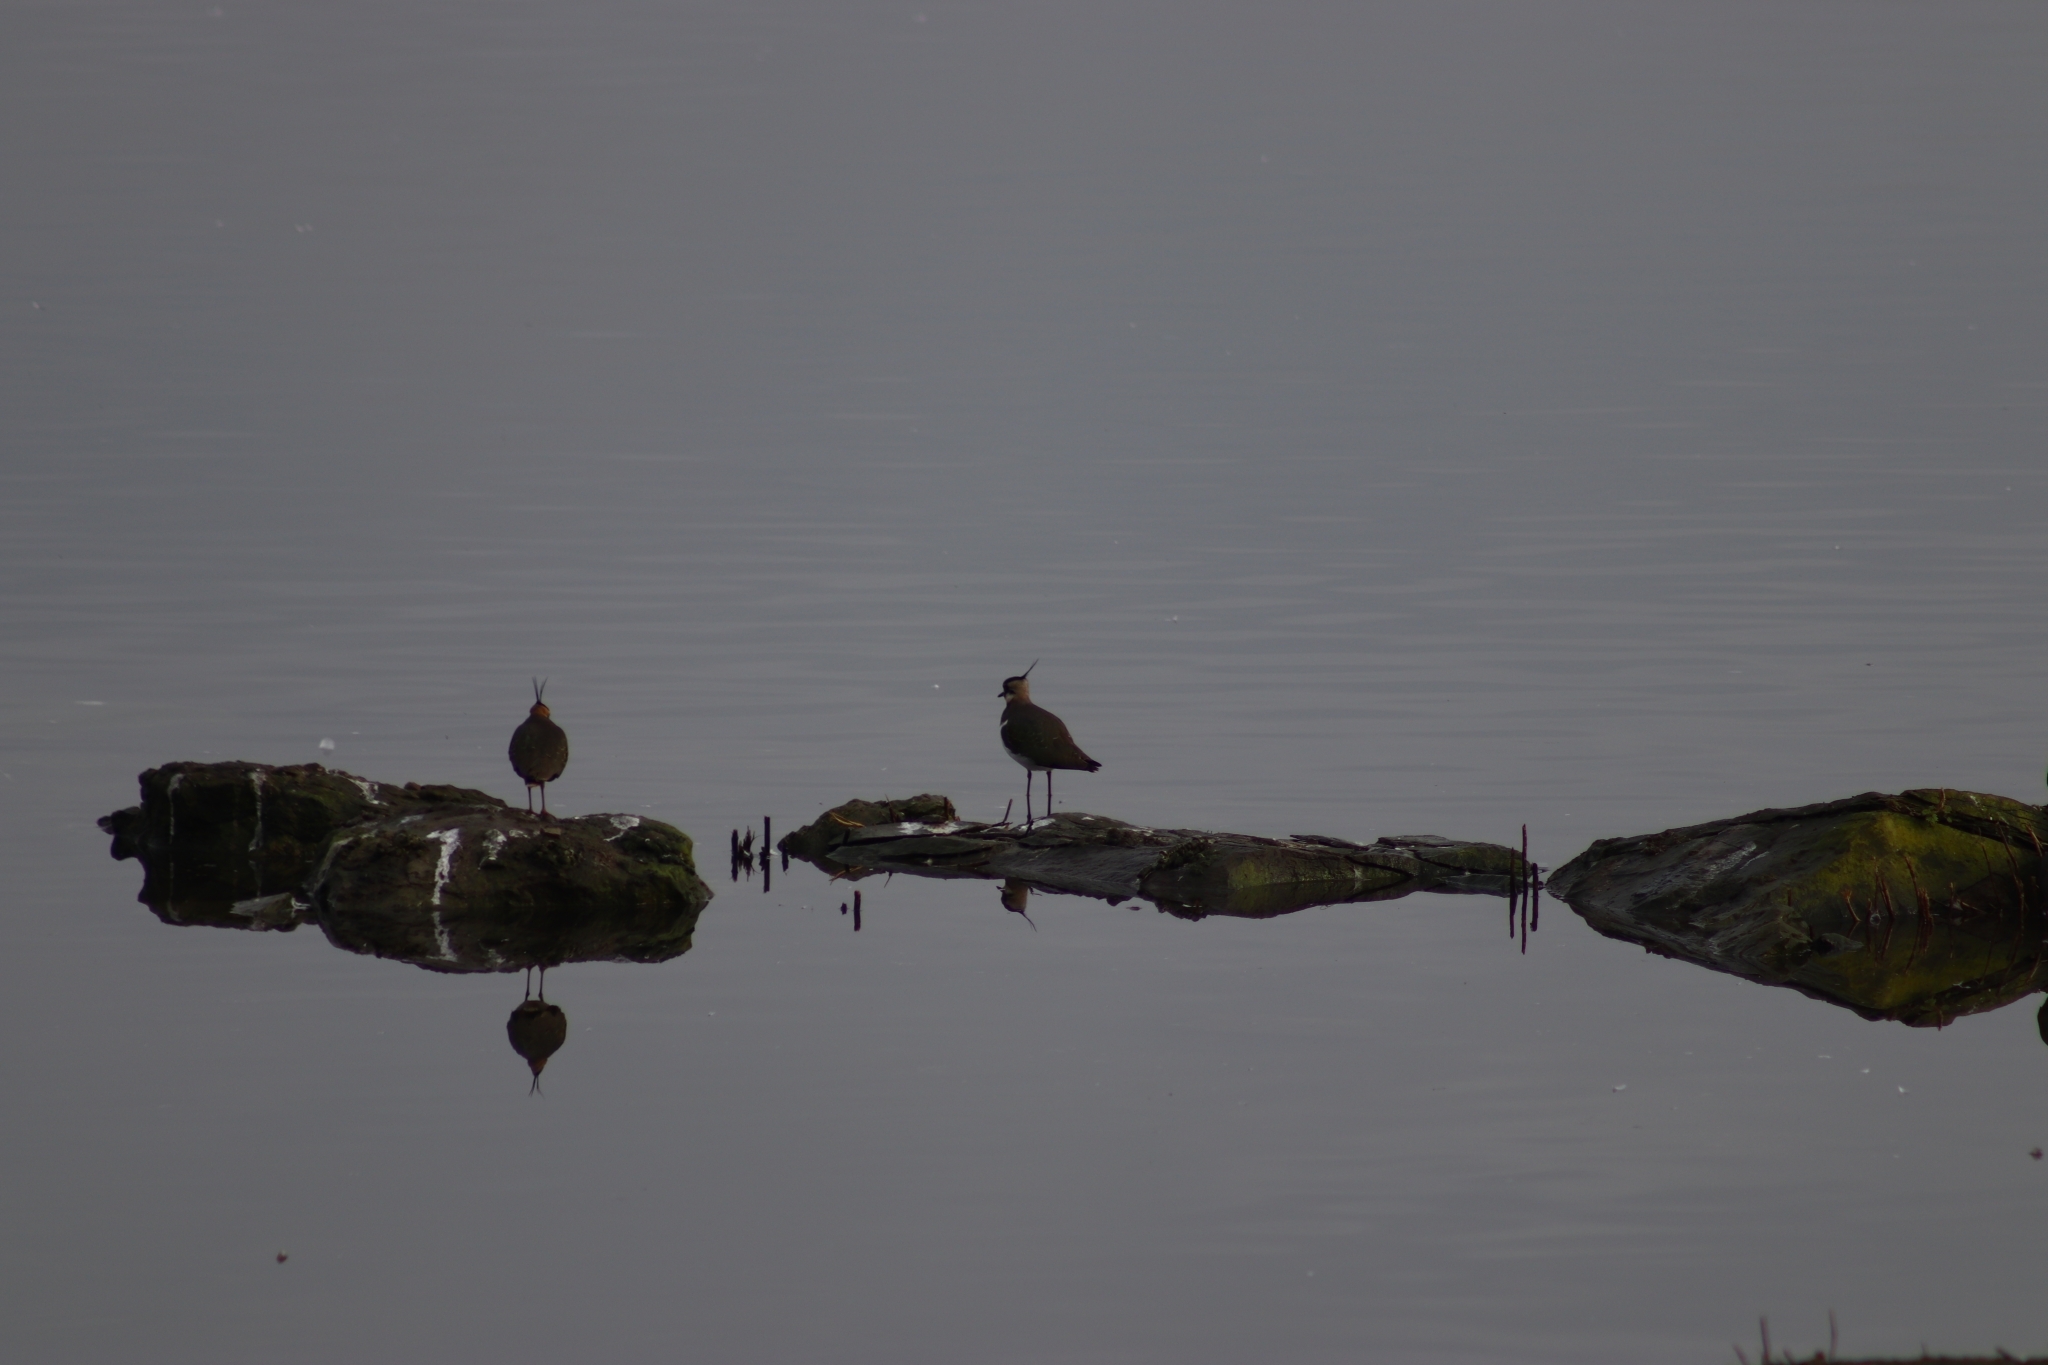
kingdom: Animalia
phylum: Chordata
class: Aves
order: Charadriiformes
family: Charadriidae
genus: Vanellus
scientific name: Vanellus vanellus
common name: Northern lapwing
